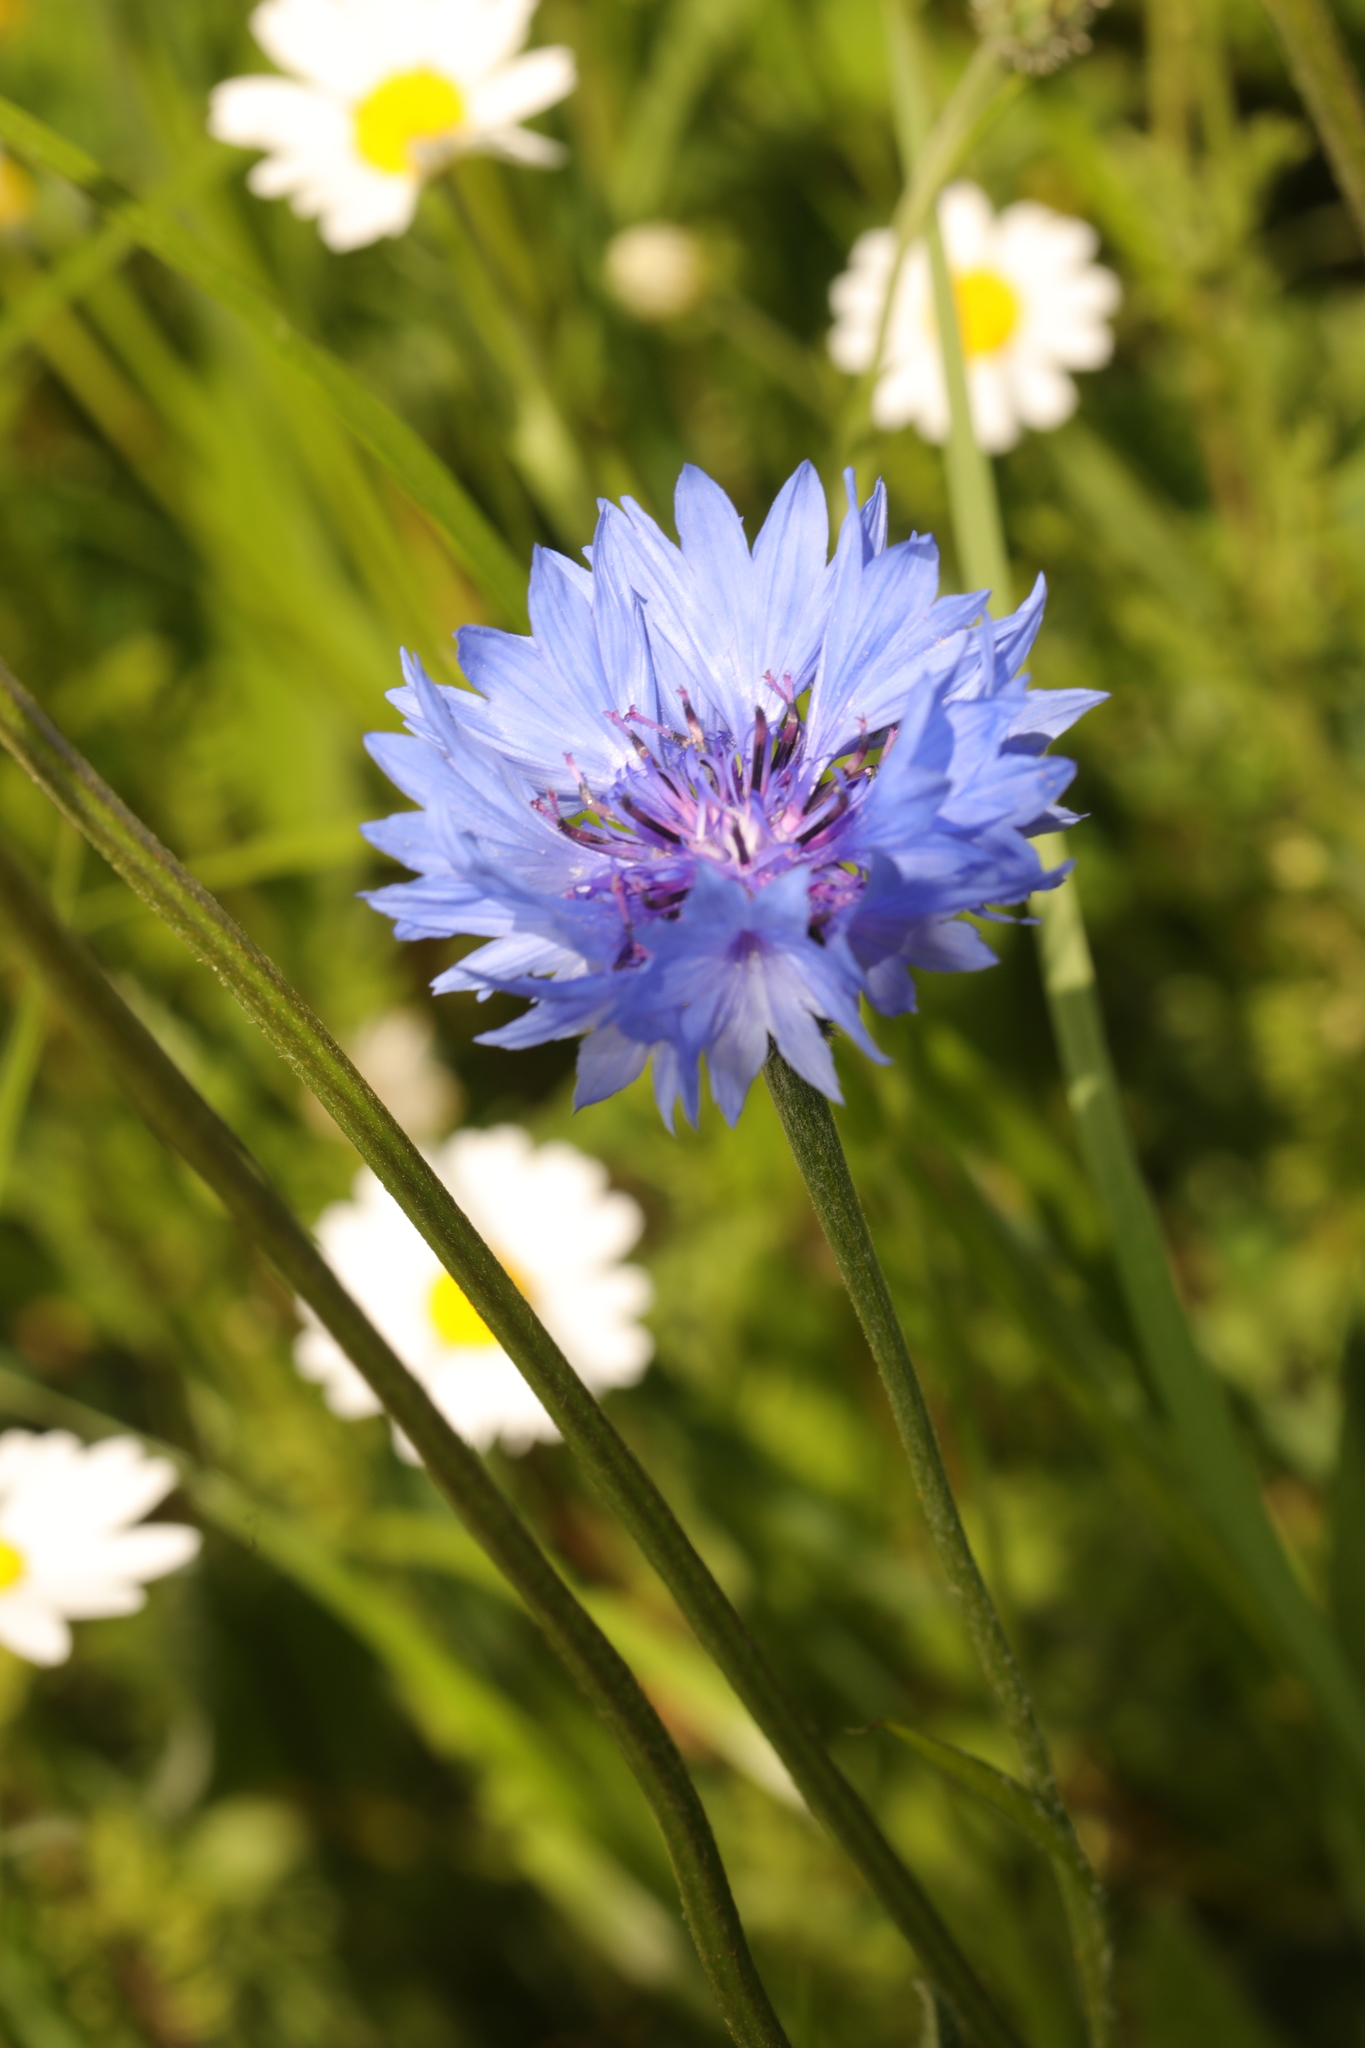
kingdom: Plantae
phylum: Tracheophyta
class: Magnoliopsida
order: Asterales
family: Asteraceae
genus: Centaurea
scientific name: Centaurea cyanus
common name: Cornflower
